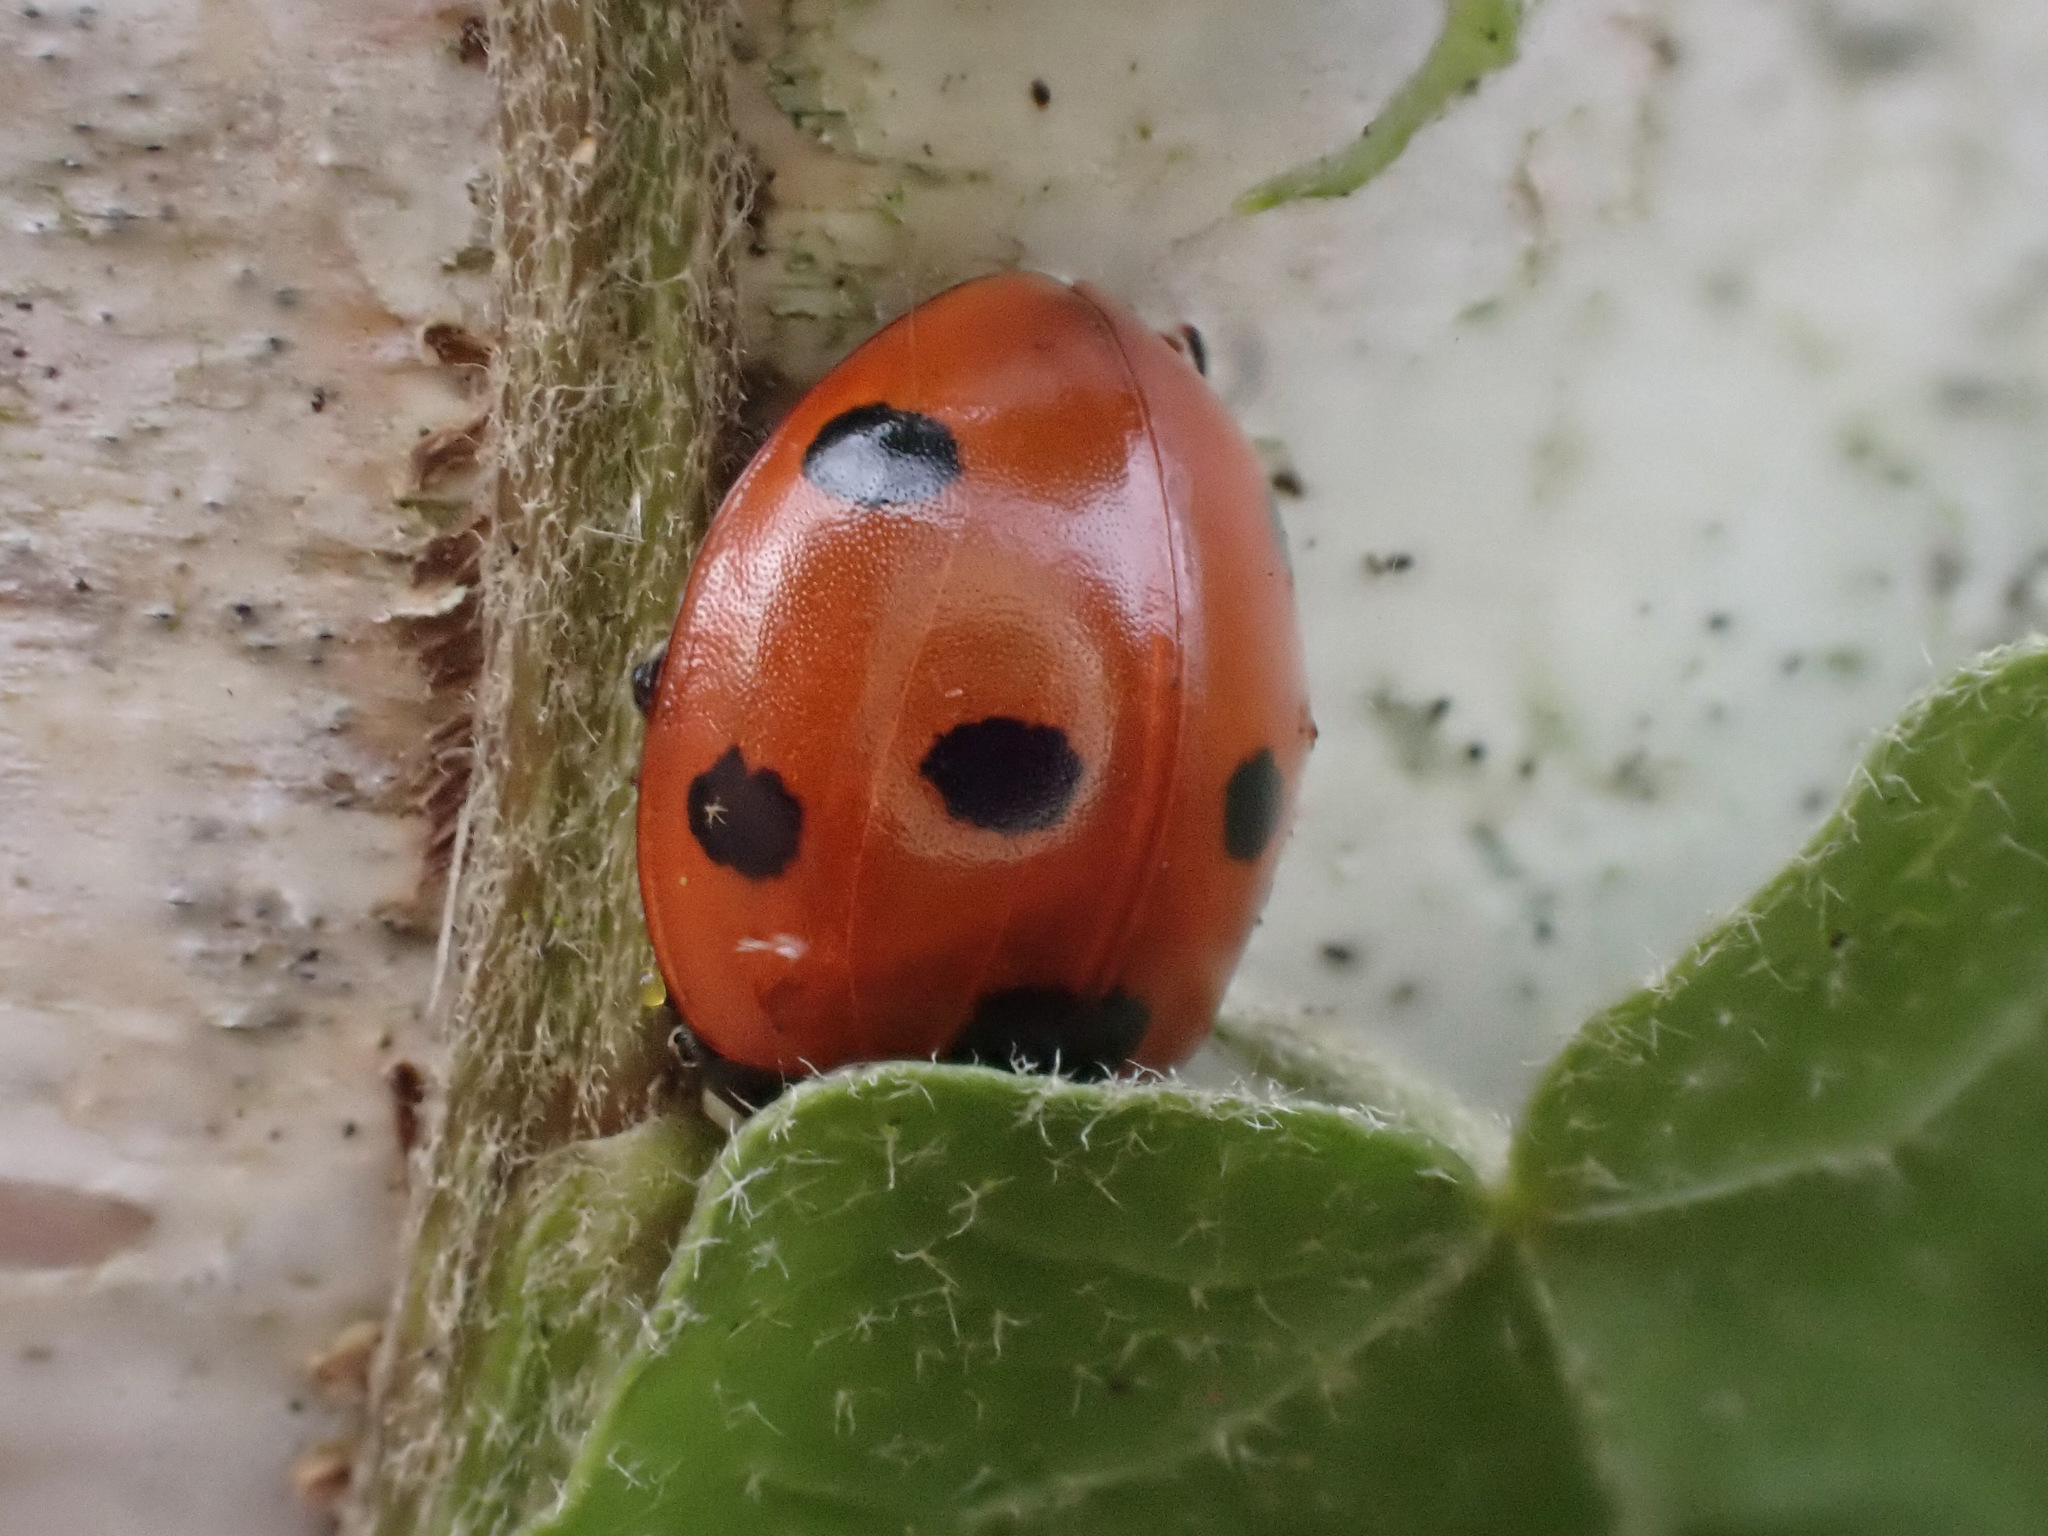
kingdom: Animalia
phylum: Arthropoda
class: Insecta
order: Coleoptera
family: Coccinellidae
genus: Coccinella
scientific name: Coccinella septempunctata
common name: Sevenspotted lady beetle
